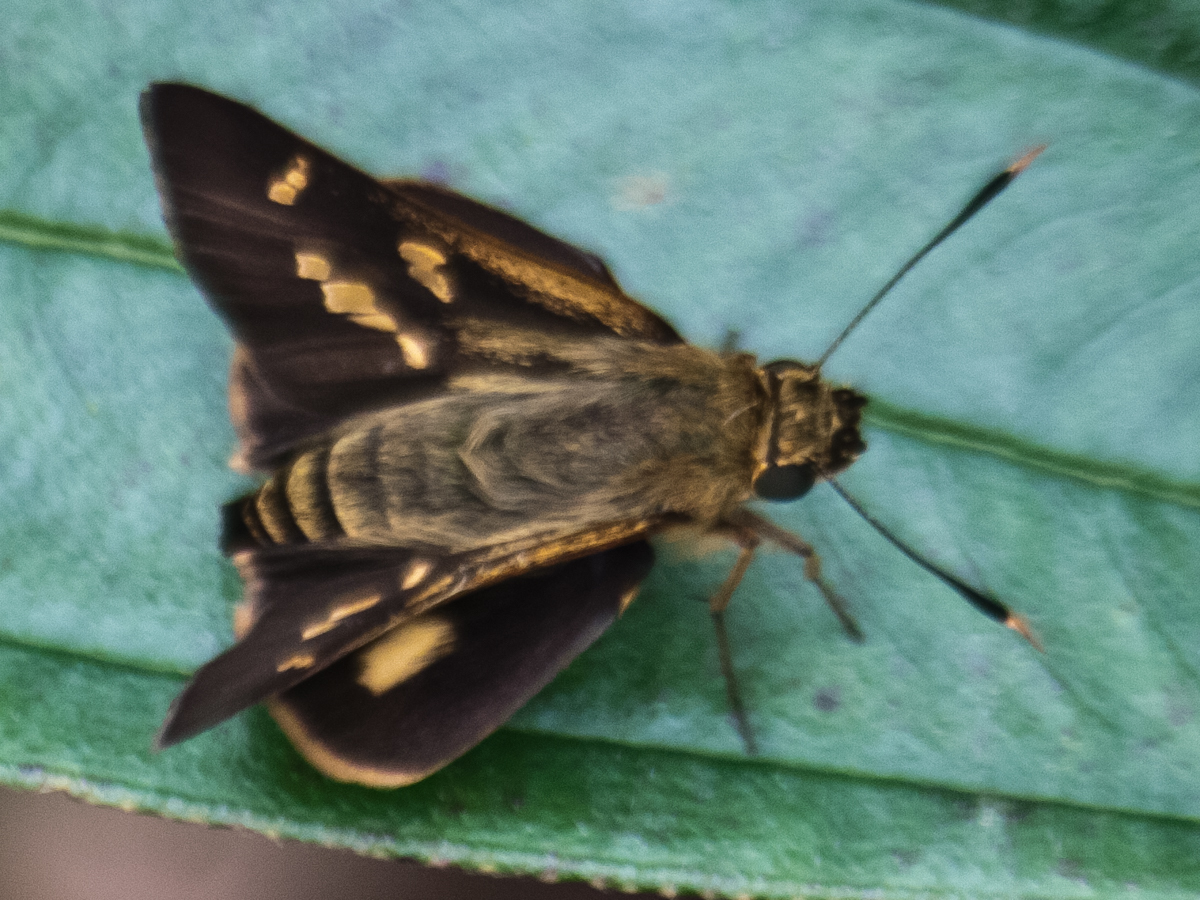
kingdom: Animalia
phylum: Arthropoda
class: Insecta
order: Lepidoptera
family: Hesperiidae
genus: Thoressa
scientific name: Thoressa masoni
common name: Golden ace
